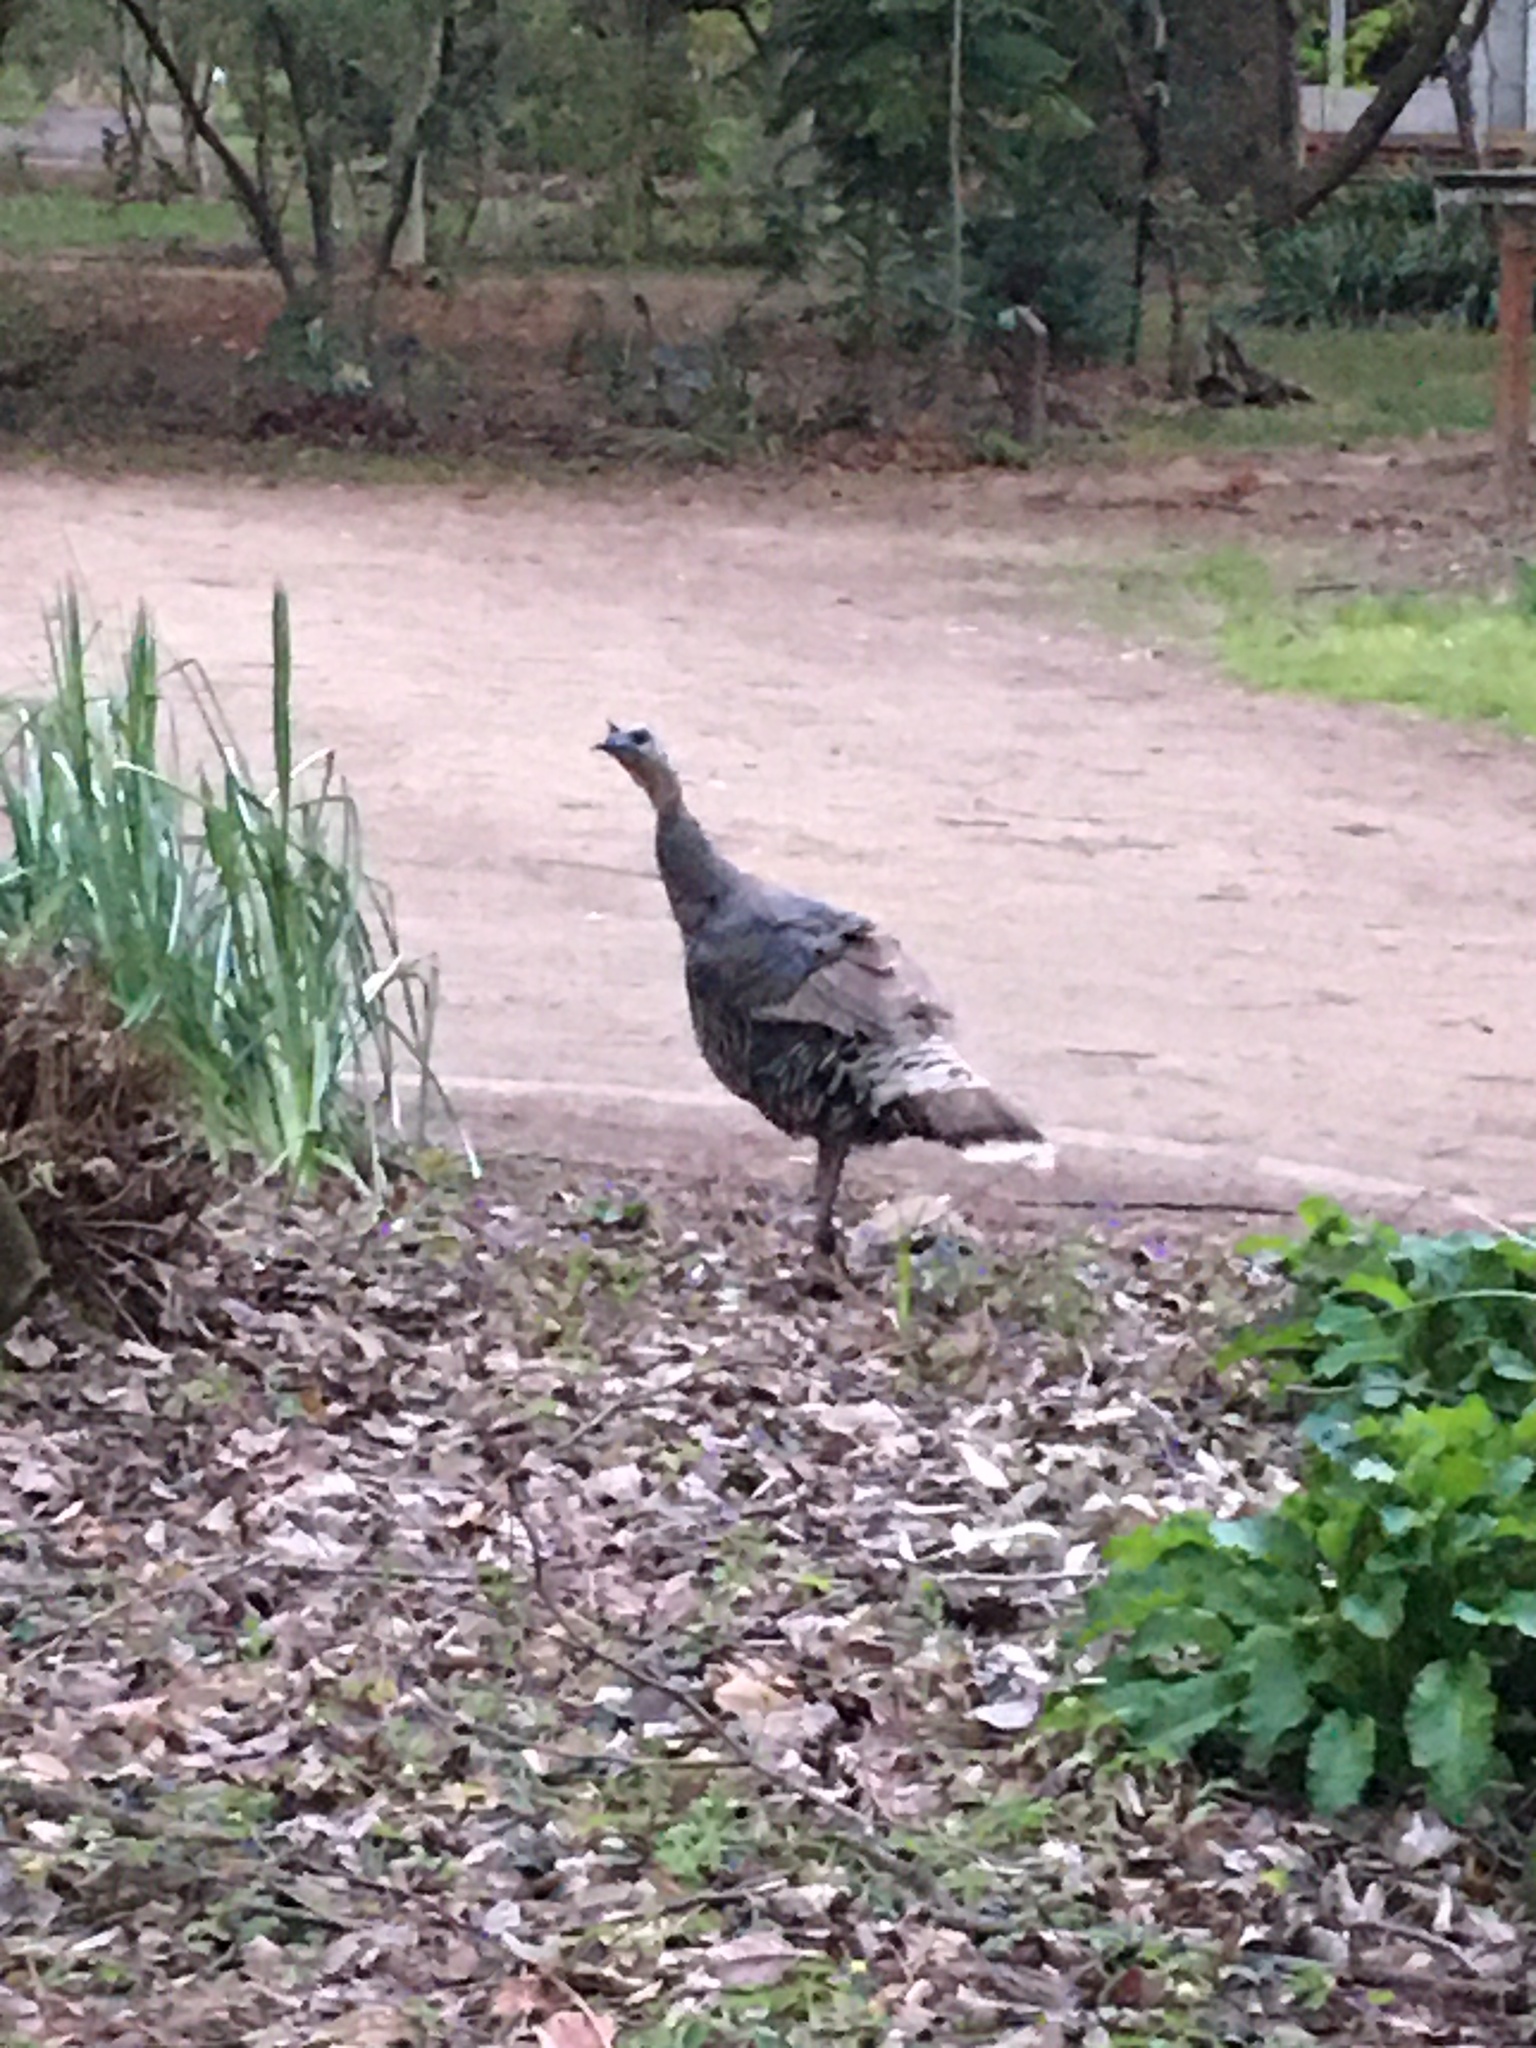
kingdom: Animalia
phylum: Chordata
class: Aves
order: Galliformes
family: Phasianidae
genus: Meleagris
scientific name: Meleagris gallopavo
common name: Wild turkey
